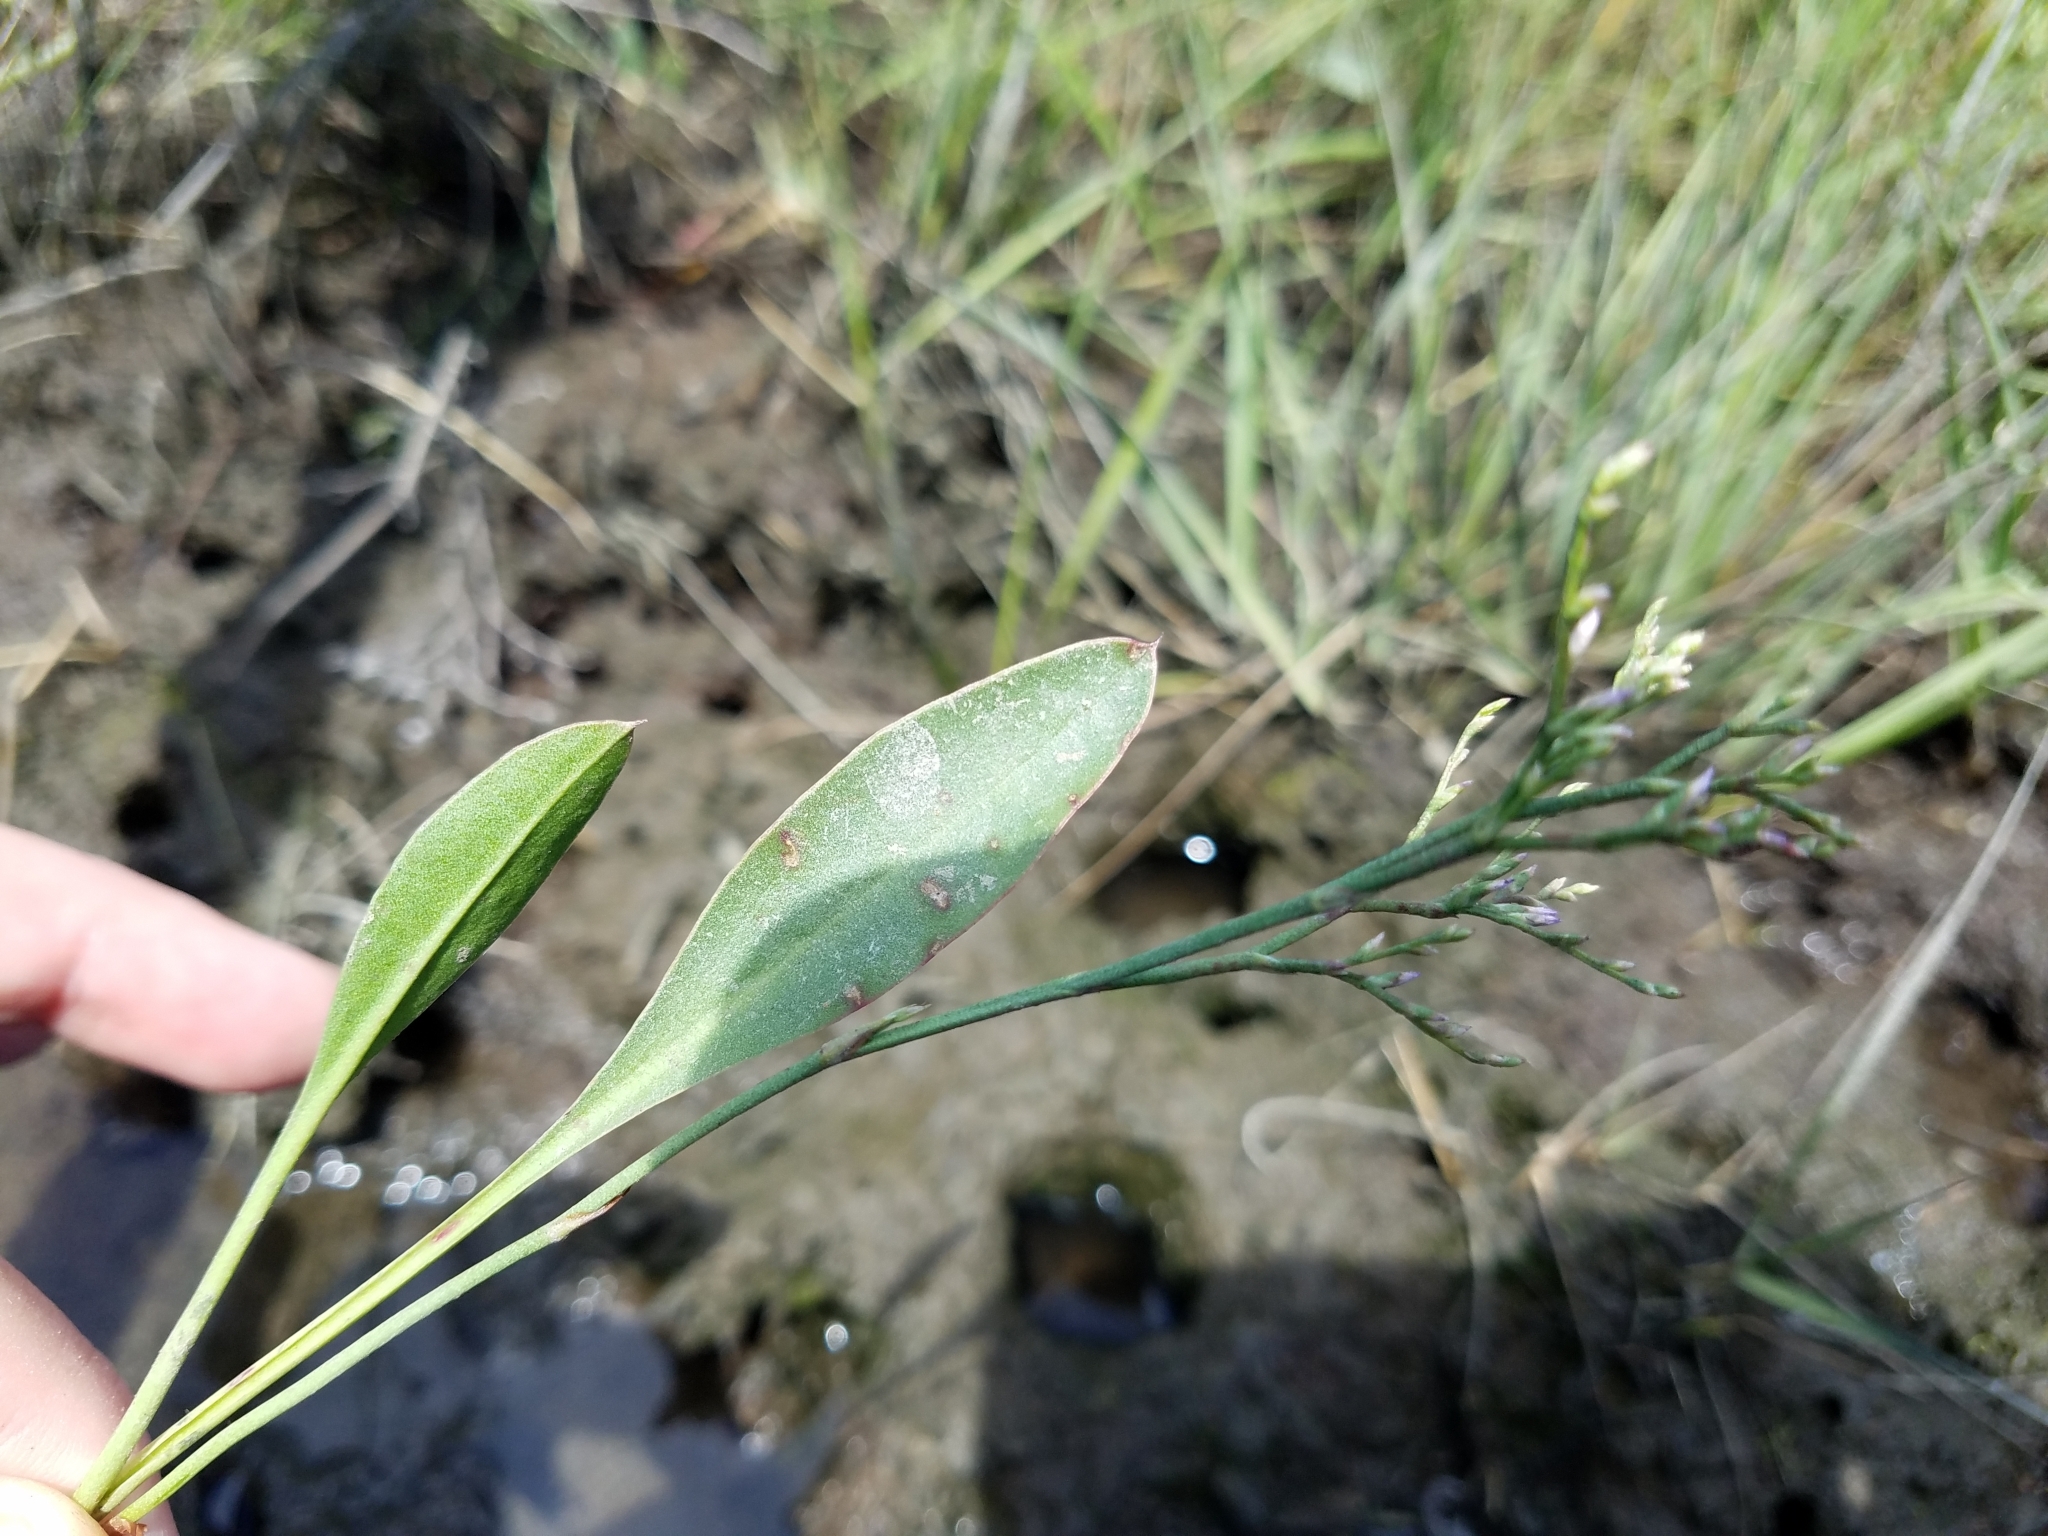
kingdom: Plantae
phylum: Tracheophyta
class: Magnoliopsida
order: Caryophyllales
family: Plumbaginaceae
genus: Limonium
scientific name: Limonium carolinianum
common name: Carolina sea lavender
